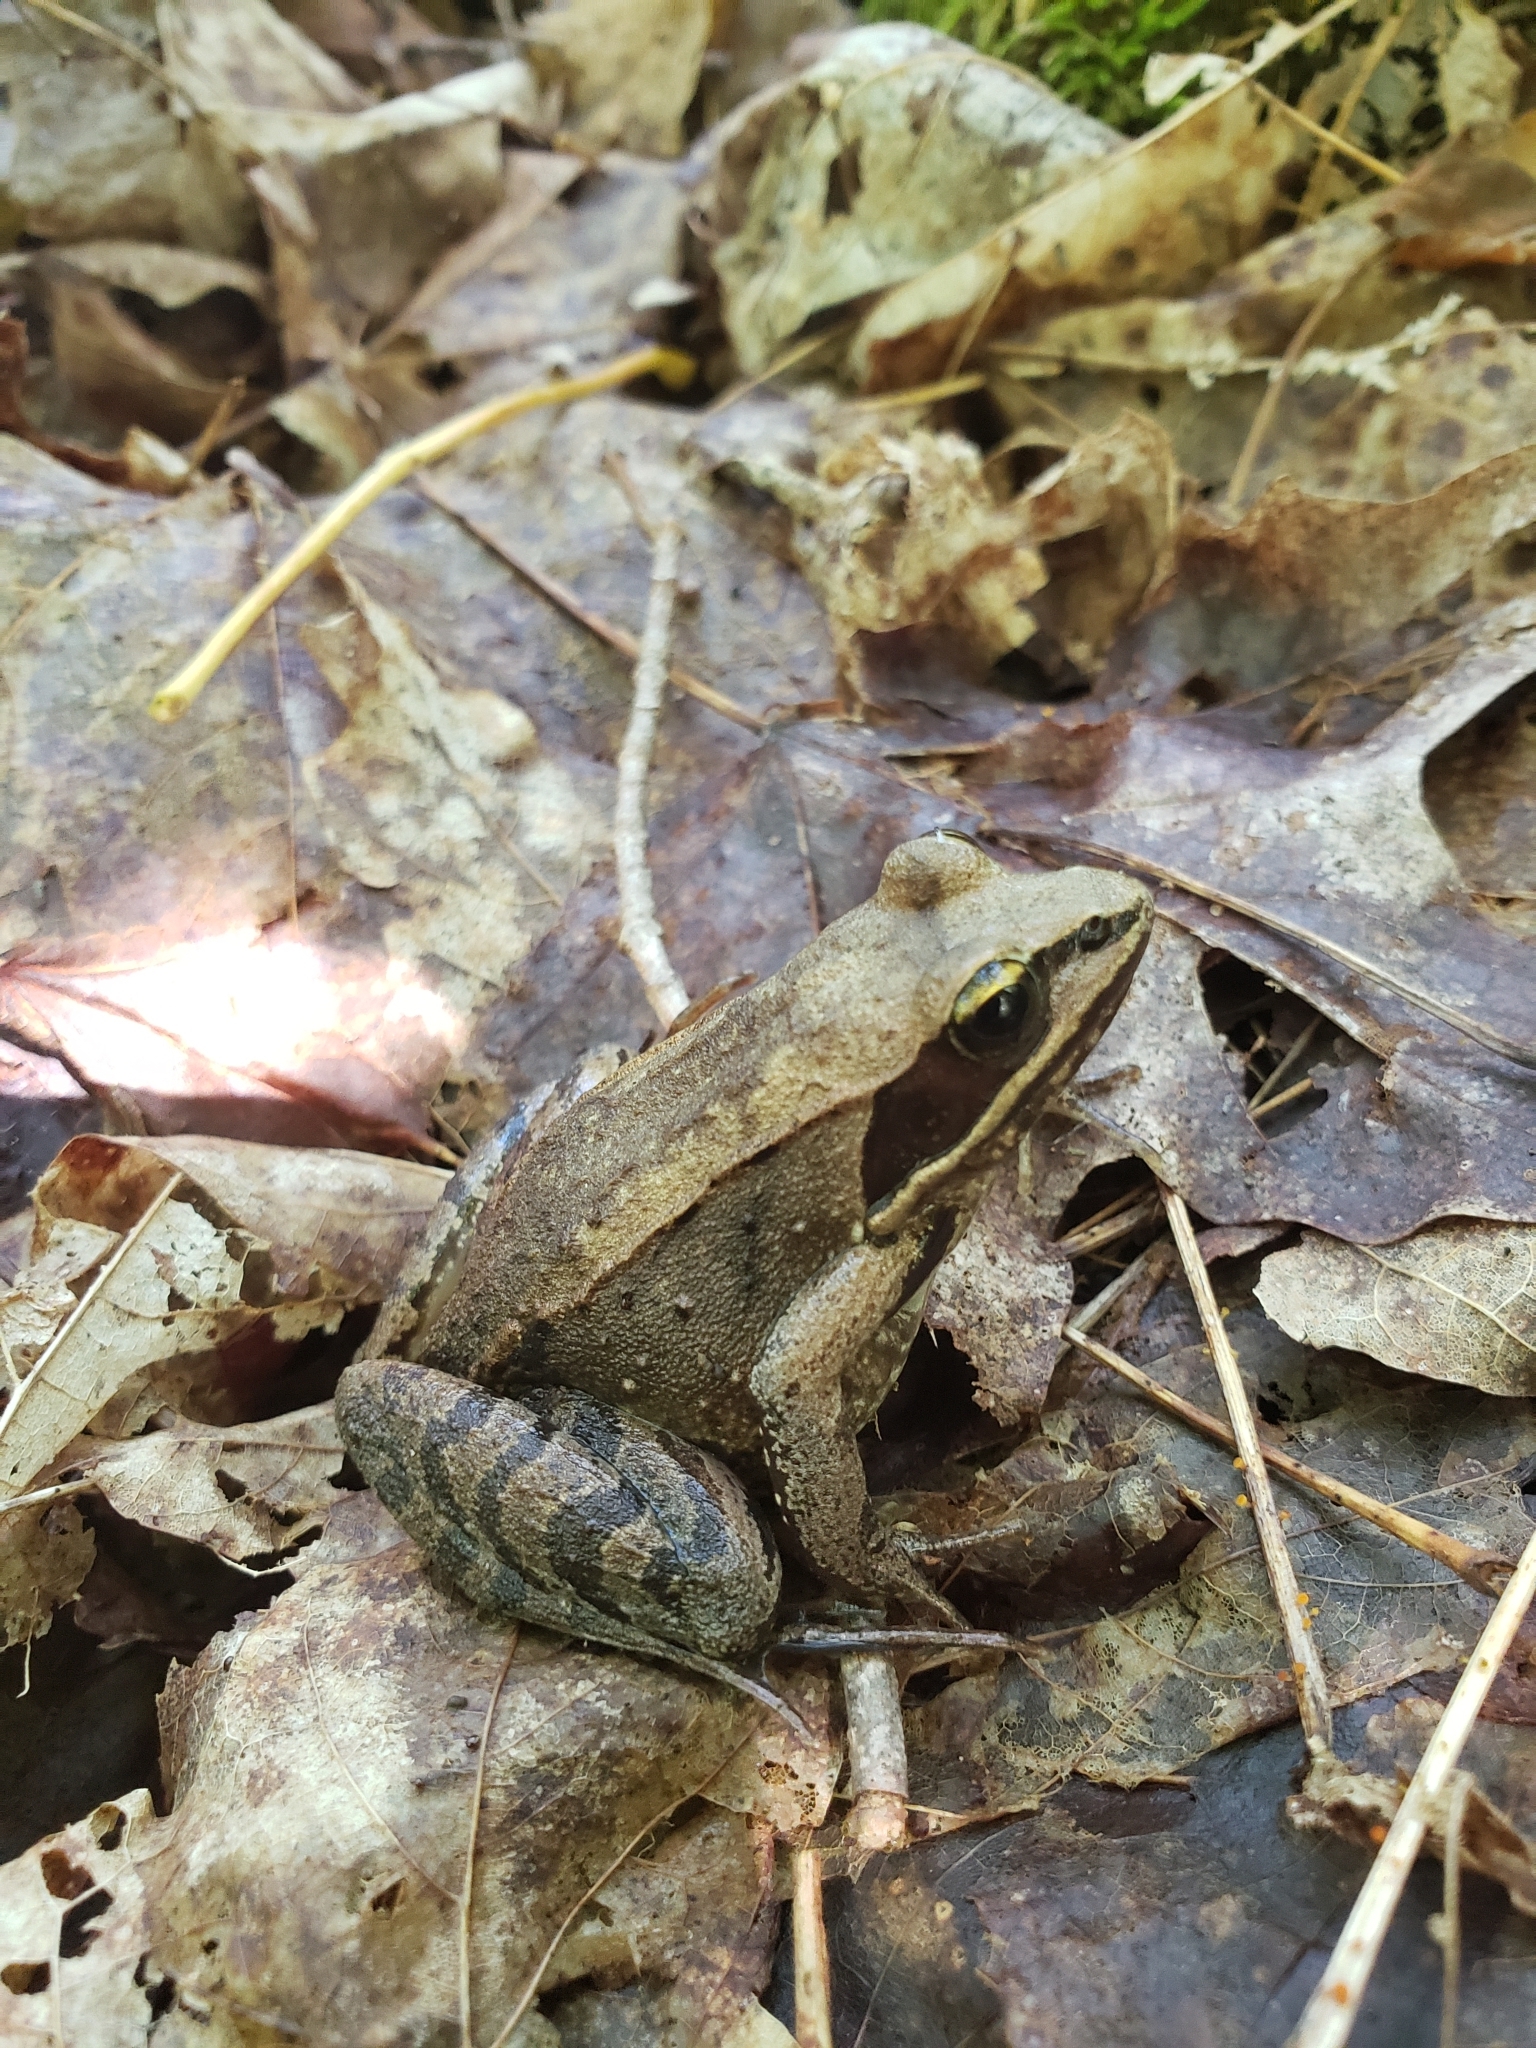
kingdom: Animalia
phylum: Chordata
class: Amphibia
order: Anura
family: Ranidae
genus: Lithobates
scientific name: Lithobates sylvaticus
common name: Wood frog
